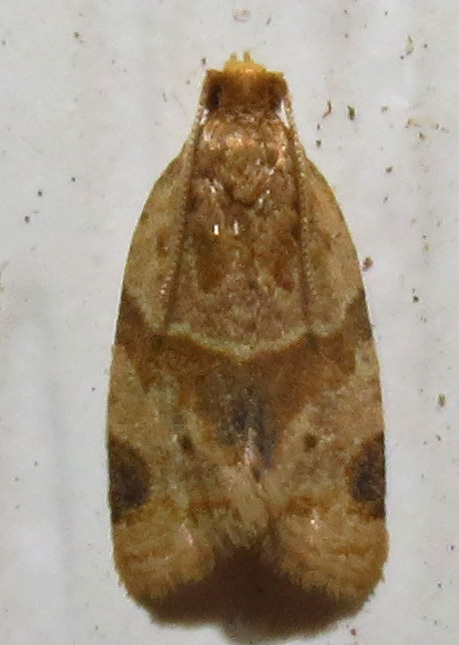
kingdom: Animalia
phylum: Arthropoda
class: Insecta
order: Lepidoptera
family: Tortricidae
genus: Clepsis
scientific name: Clepsis peritana
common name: Garden tortrix
